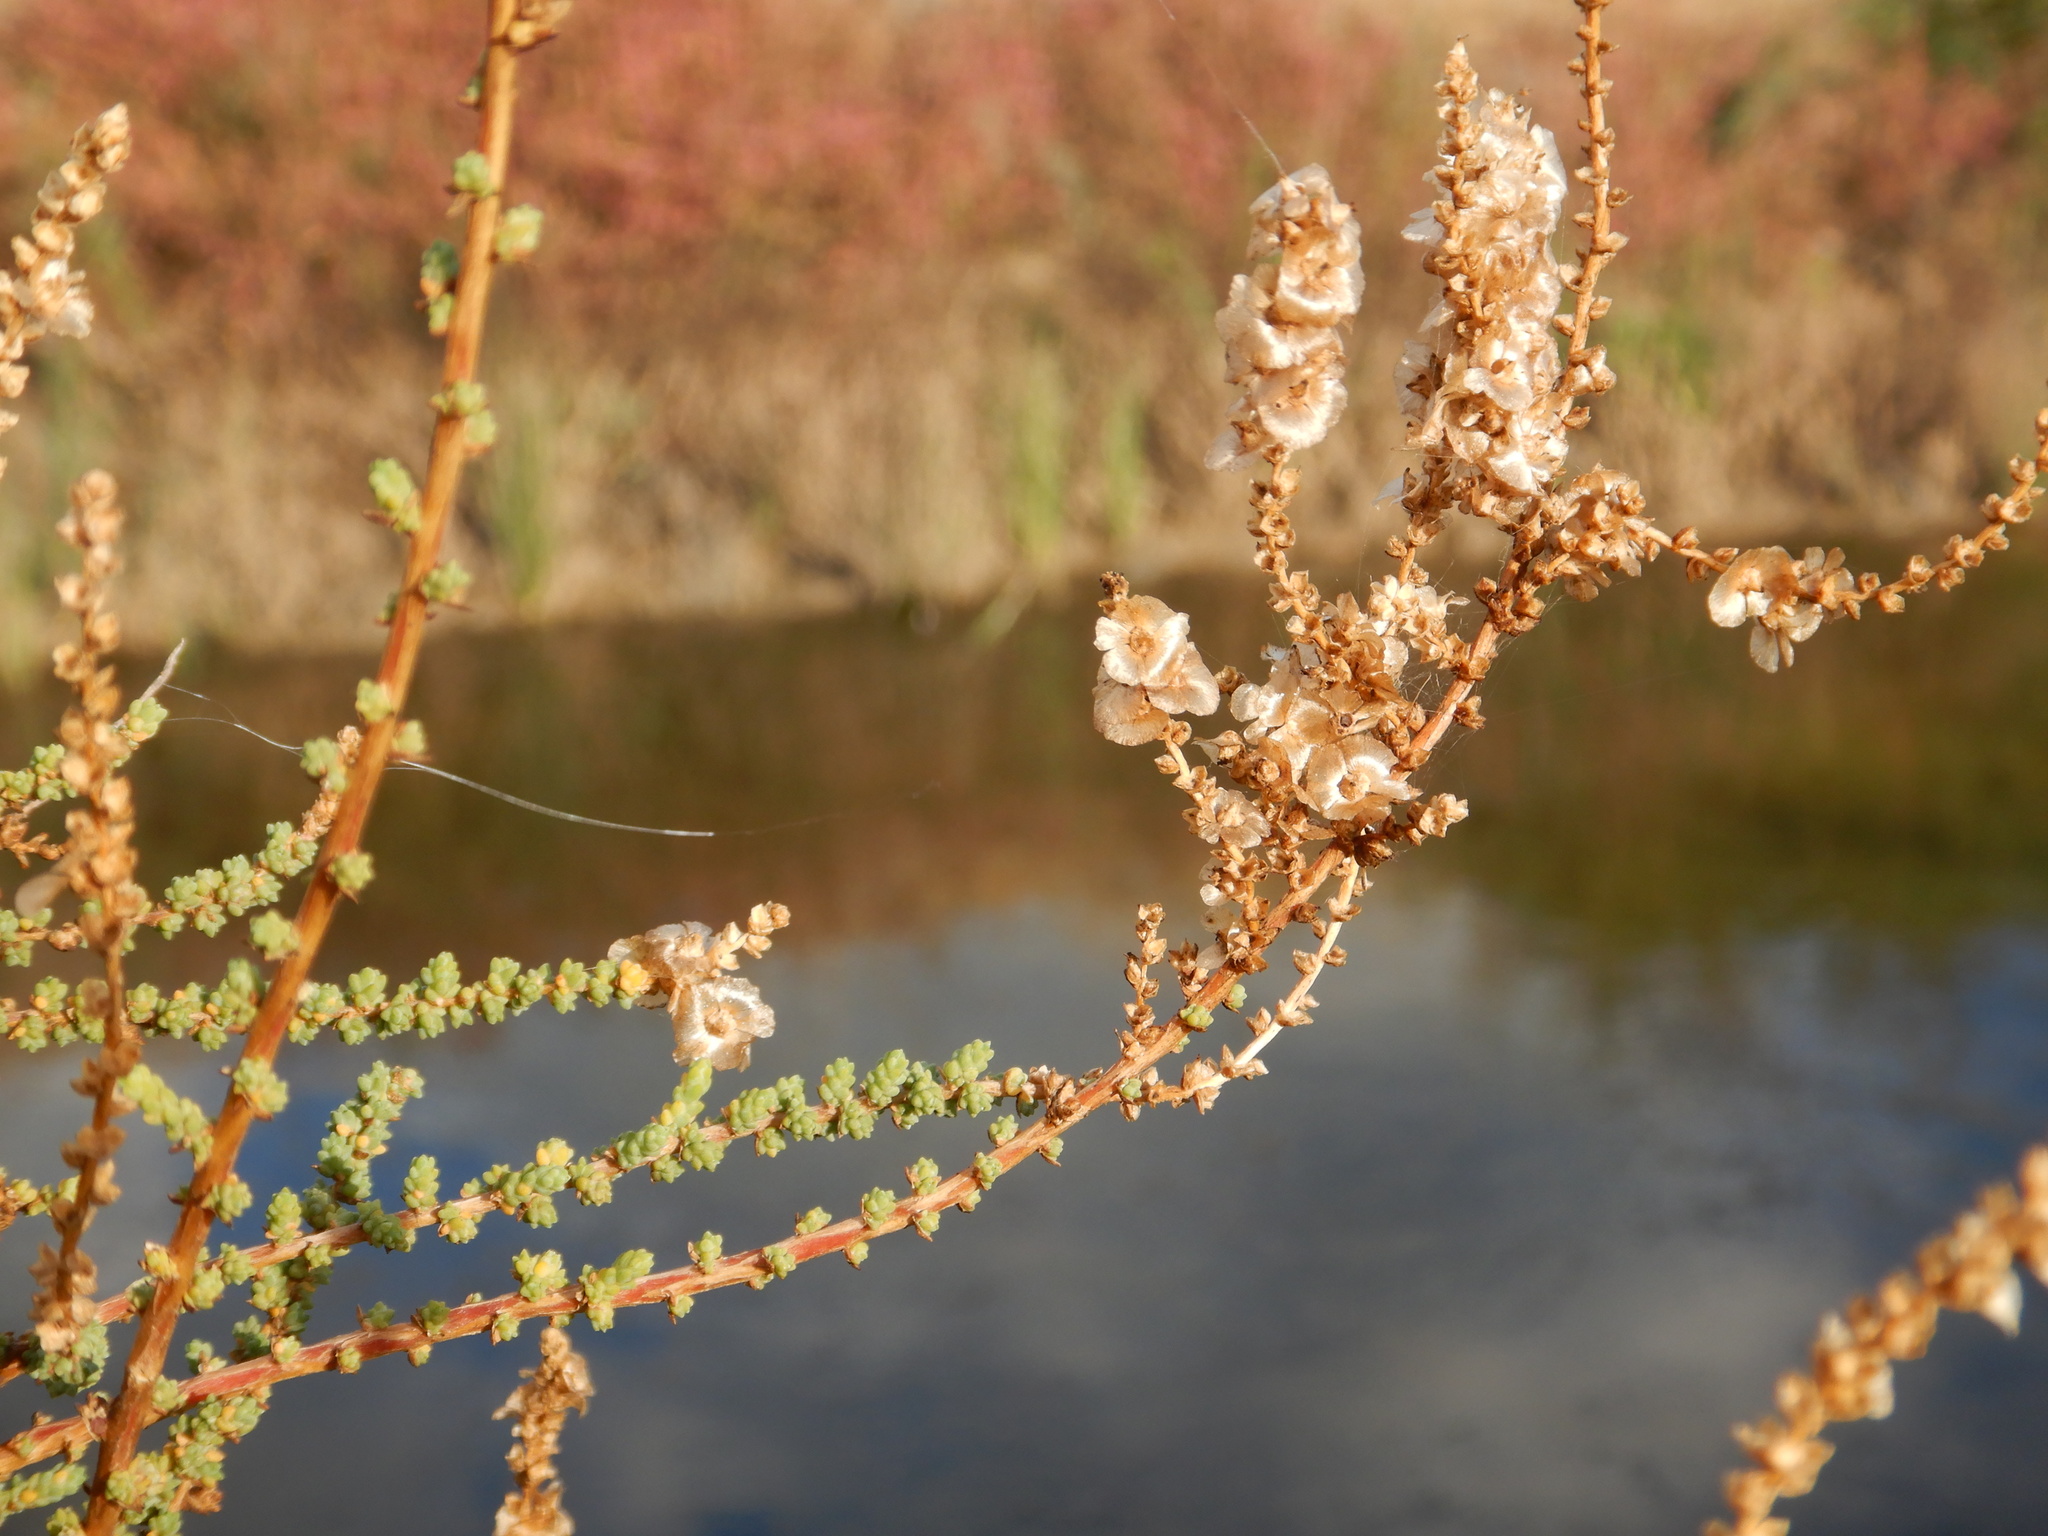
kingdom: Plantae
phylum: Tracheophyta
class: Magnoliopsida
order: Caryophyllales
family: Amaranthaceae
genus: Nitrosalsola
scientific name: Nitrosalsola vermiculata
